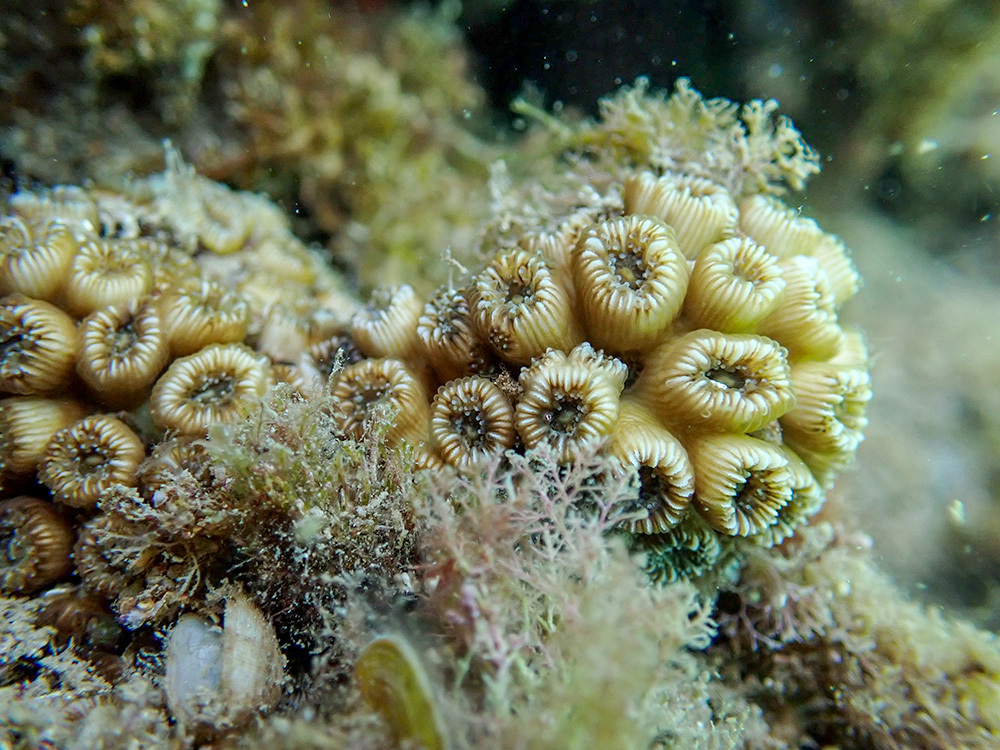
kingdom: Animalia
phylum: Cnidaria
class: Anthozoa
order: Scleractinia
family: Cladocoridae
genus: Cladocora
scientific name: Cladocora caespitosa
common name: Cladocora
